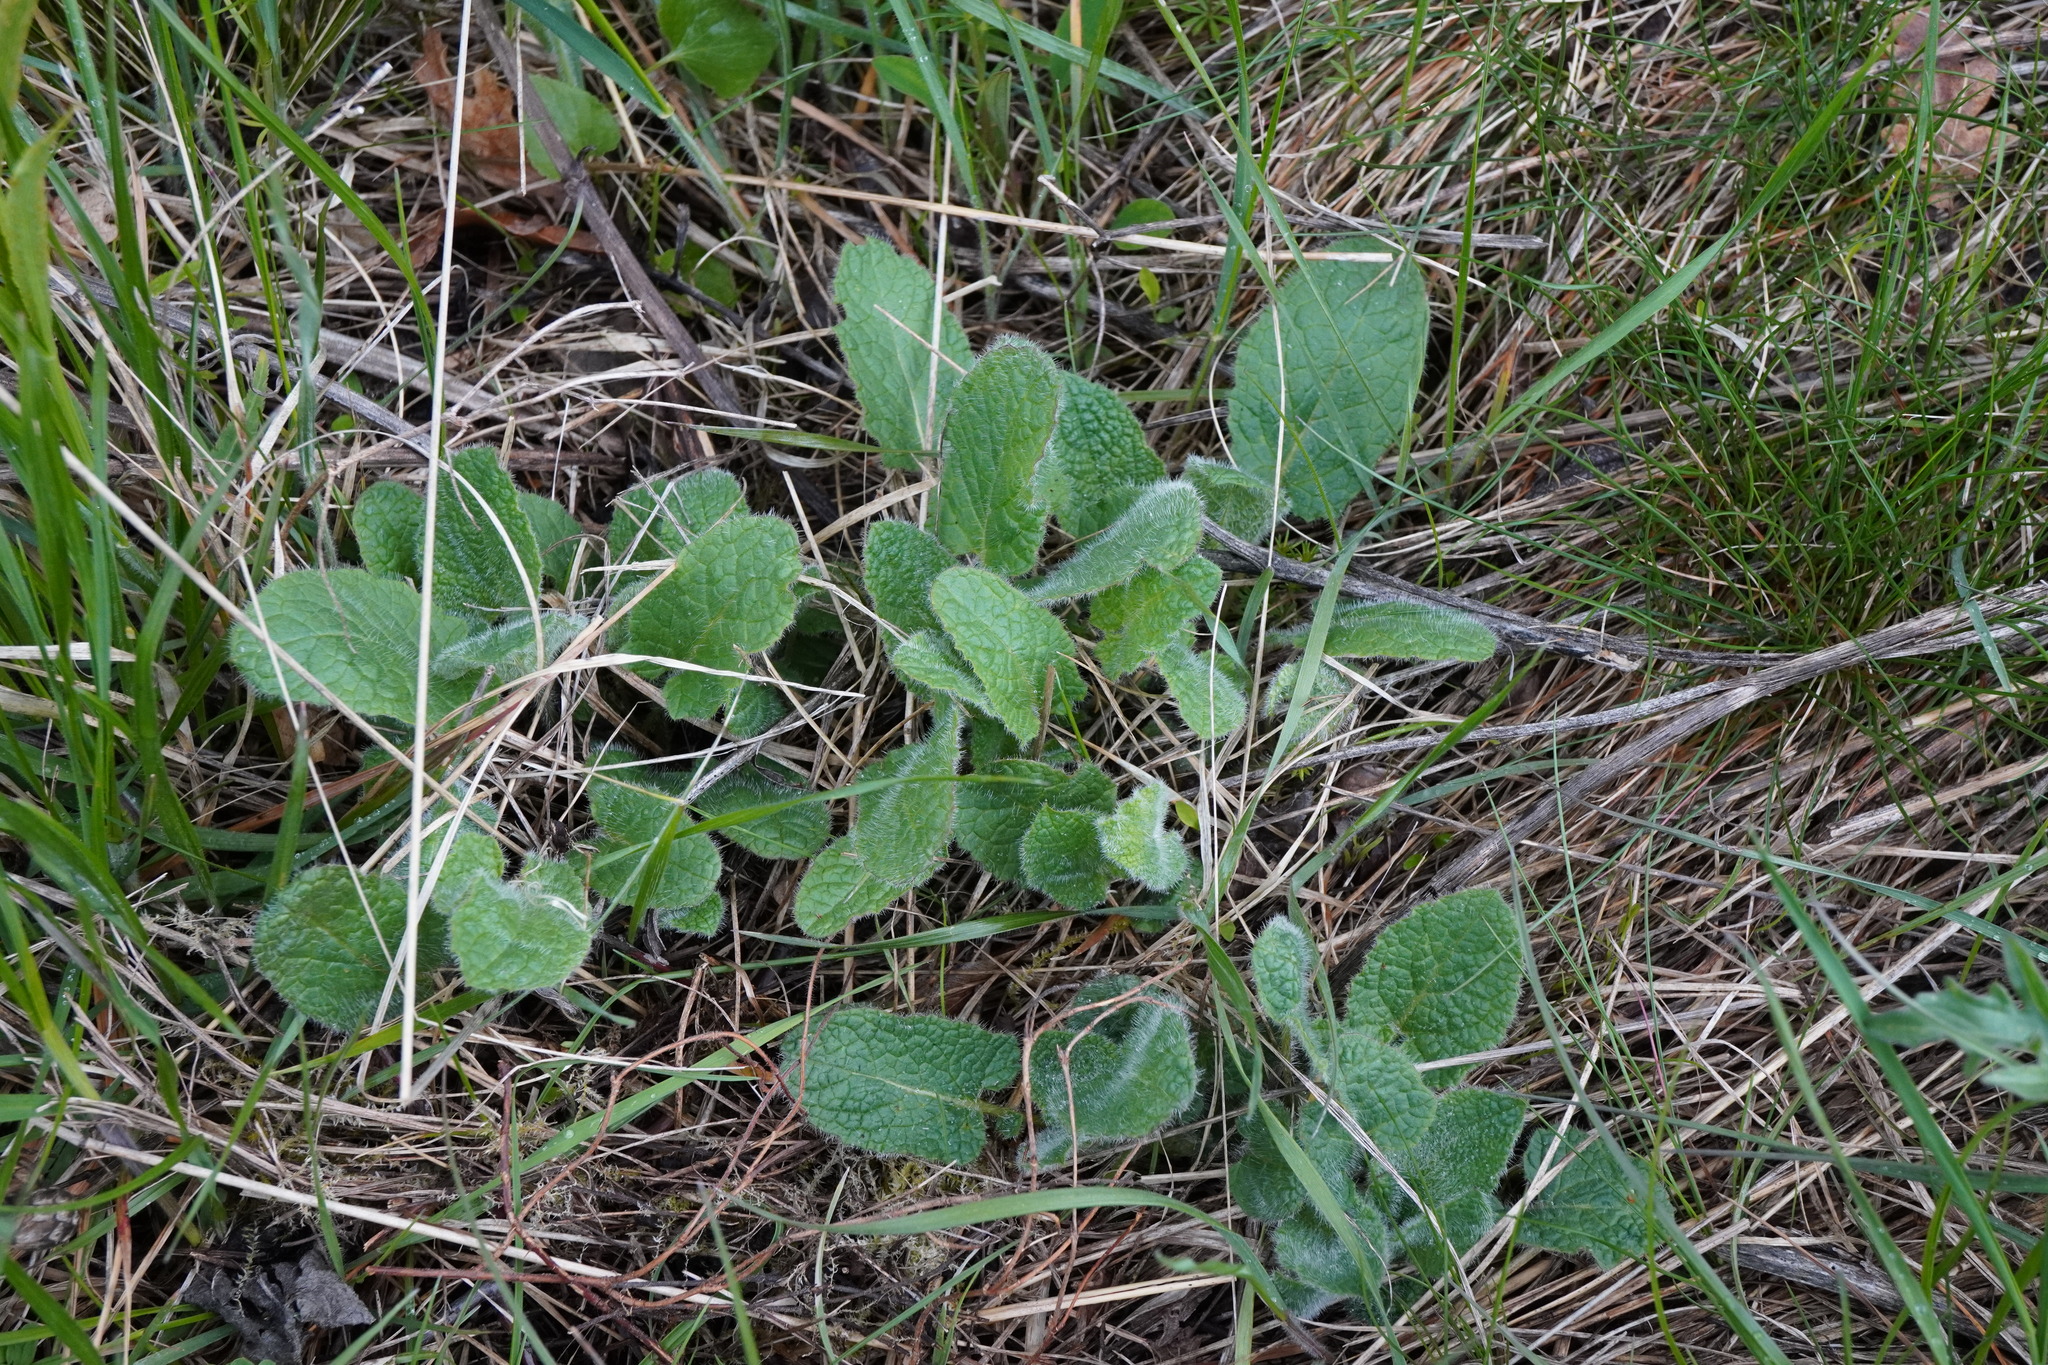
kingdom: Plantae
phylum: Tracheophyta
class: Magnoliopsida
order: Lamiales
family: Lamiaceae
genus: Salvia
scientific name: Salvia verticillata
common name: Whorled clary
